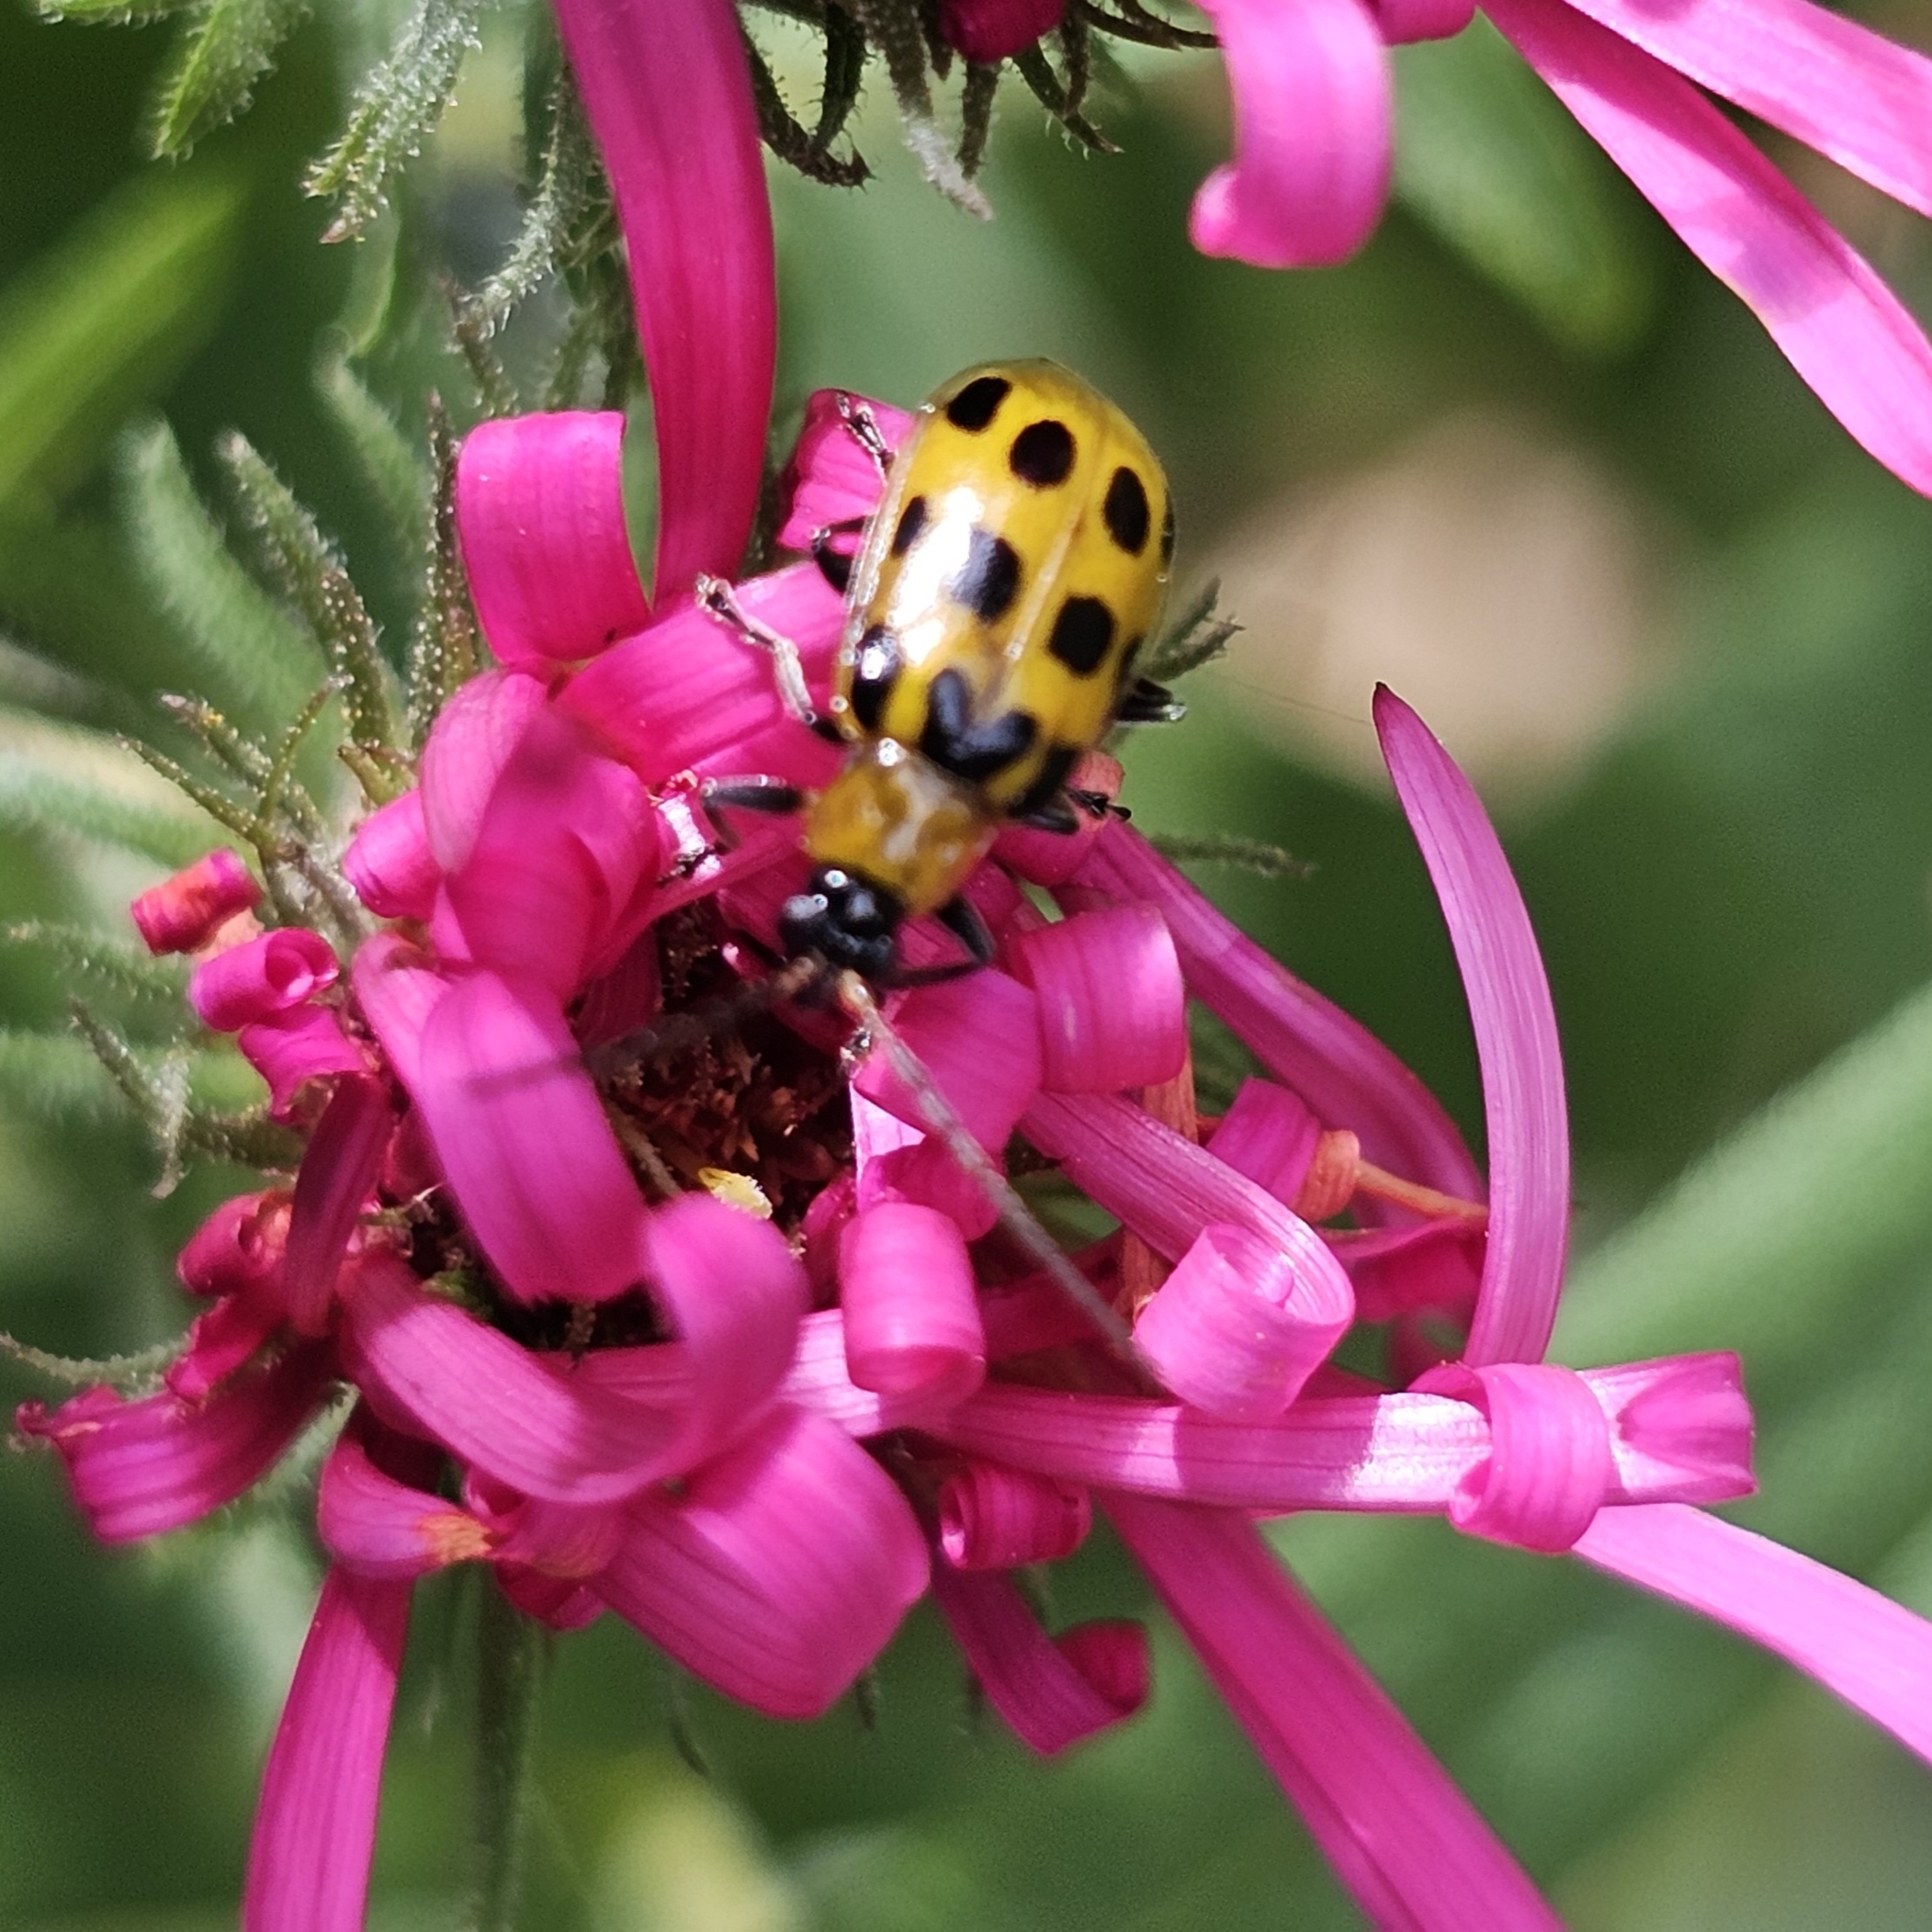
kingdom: Animalia
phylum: Arthropoda
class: Insecta
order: Coleoptera
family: Chrysomelidae
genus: Diabrotica
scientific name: Diabrotica undecimpunctata
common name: Spotted cucumber beetle
